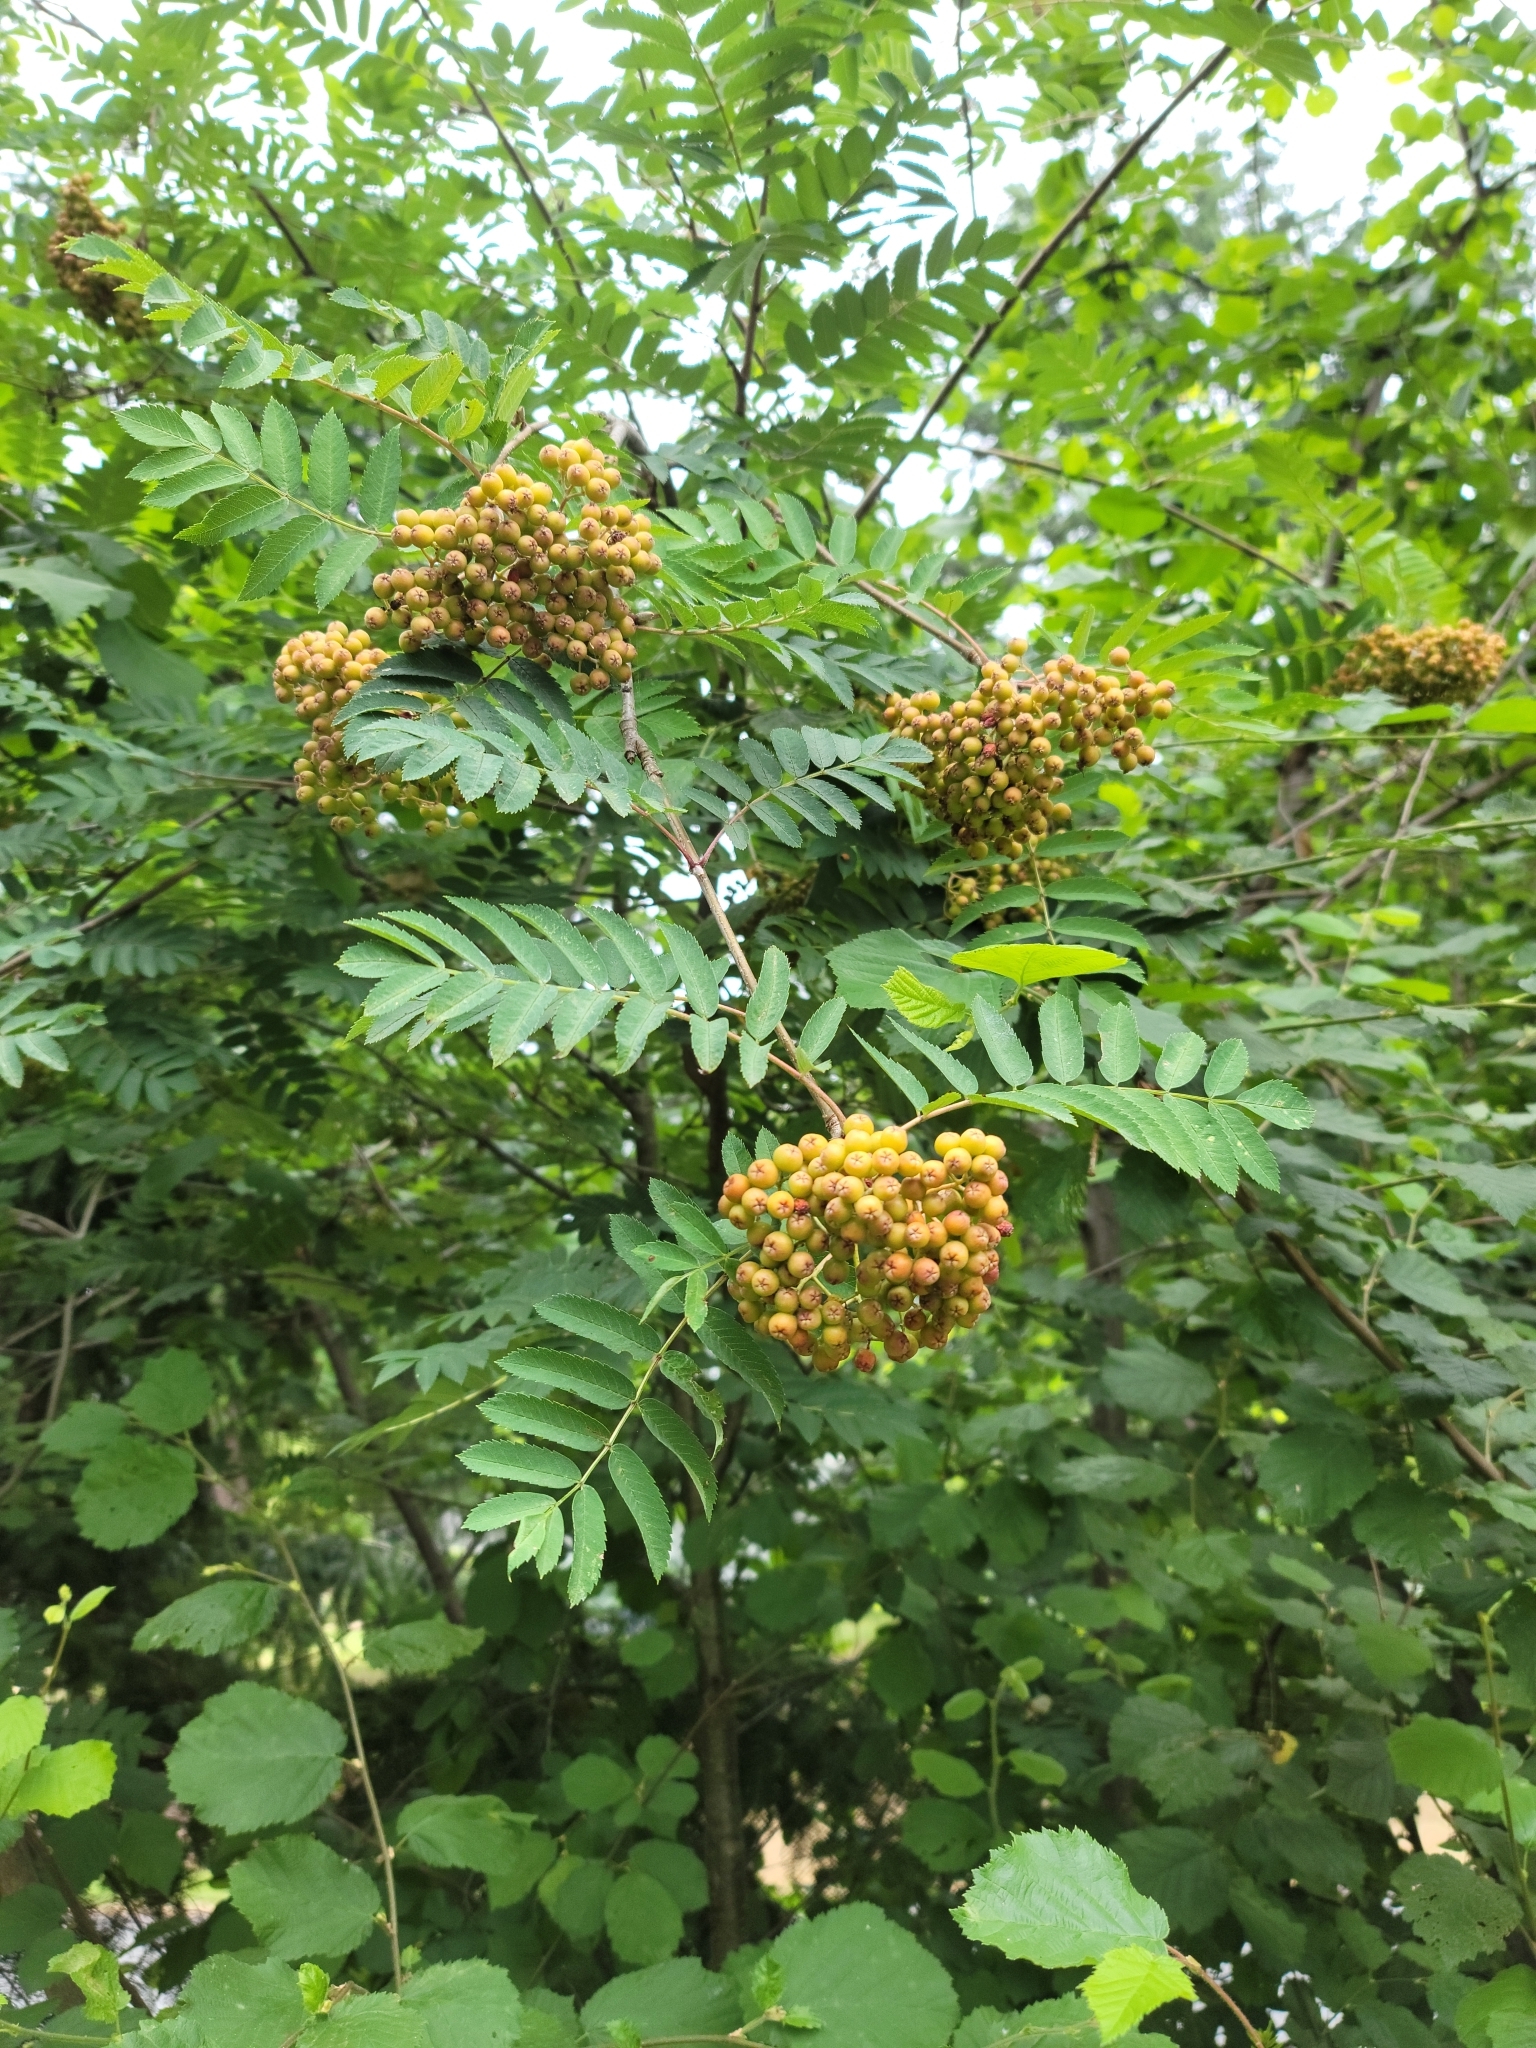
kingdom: Plantae
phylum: Tracheophyta
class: Magnoliopsida
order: Rosales
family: Rosaceae
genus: Sorbus
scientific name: Sorbus aucuparia
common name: Rowan
